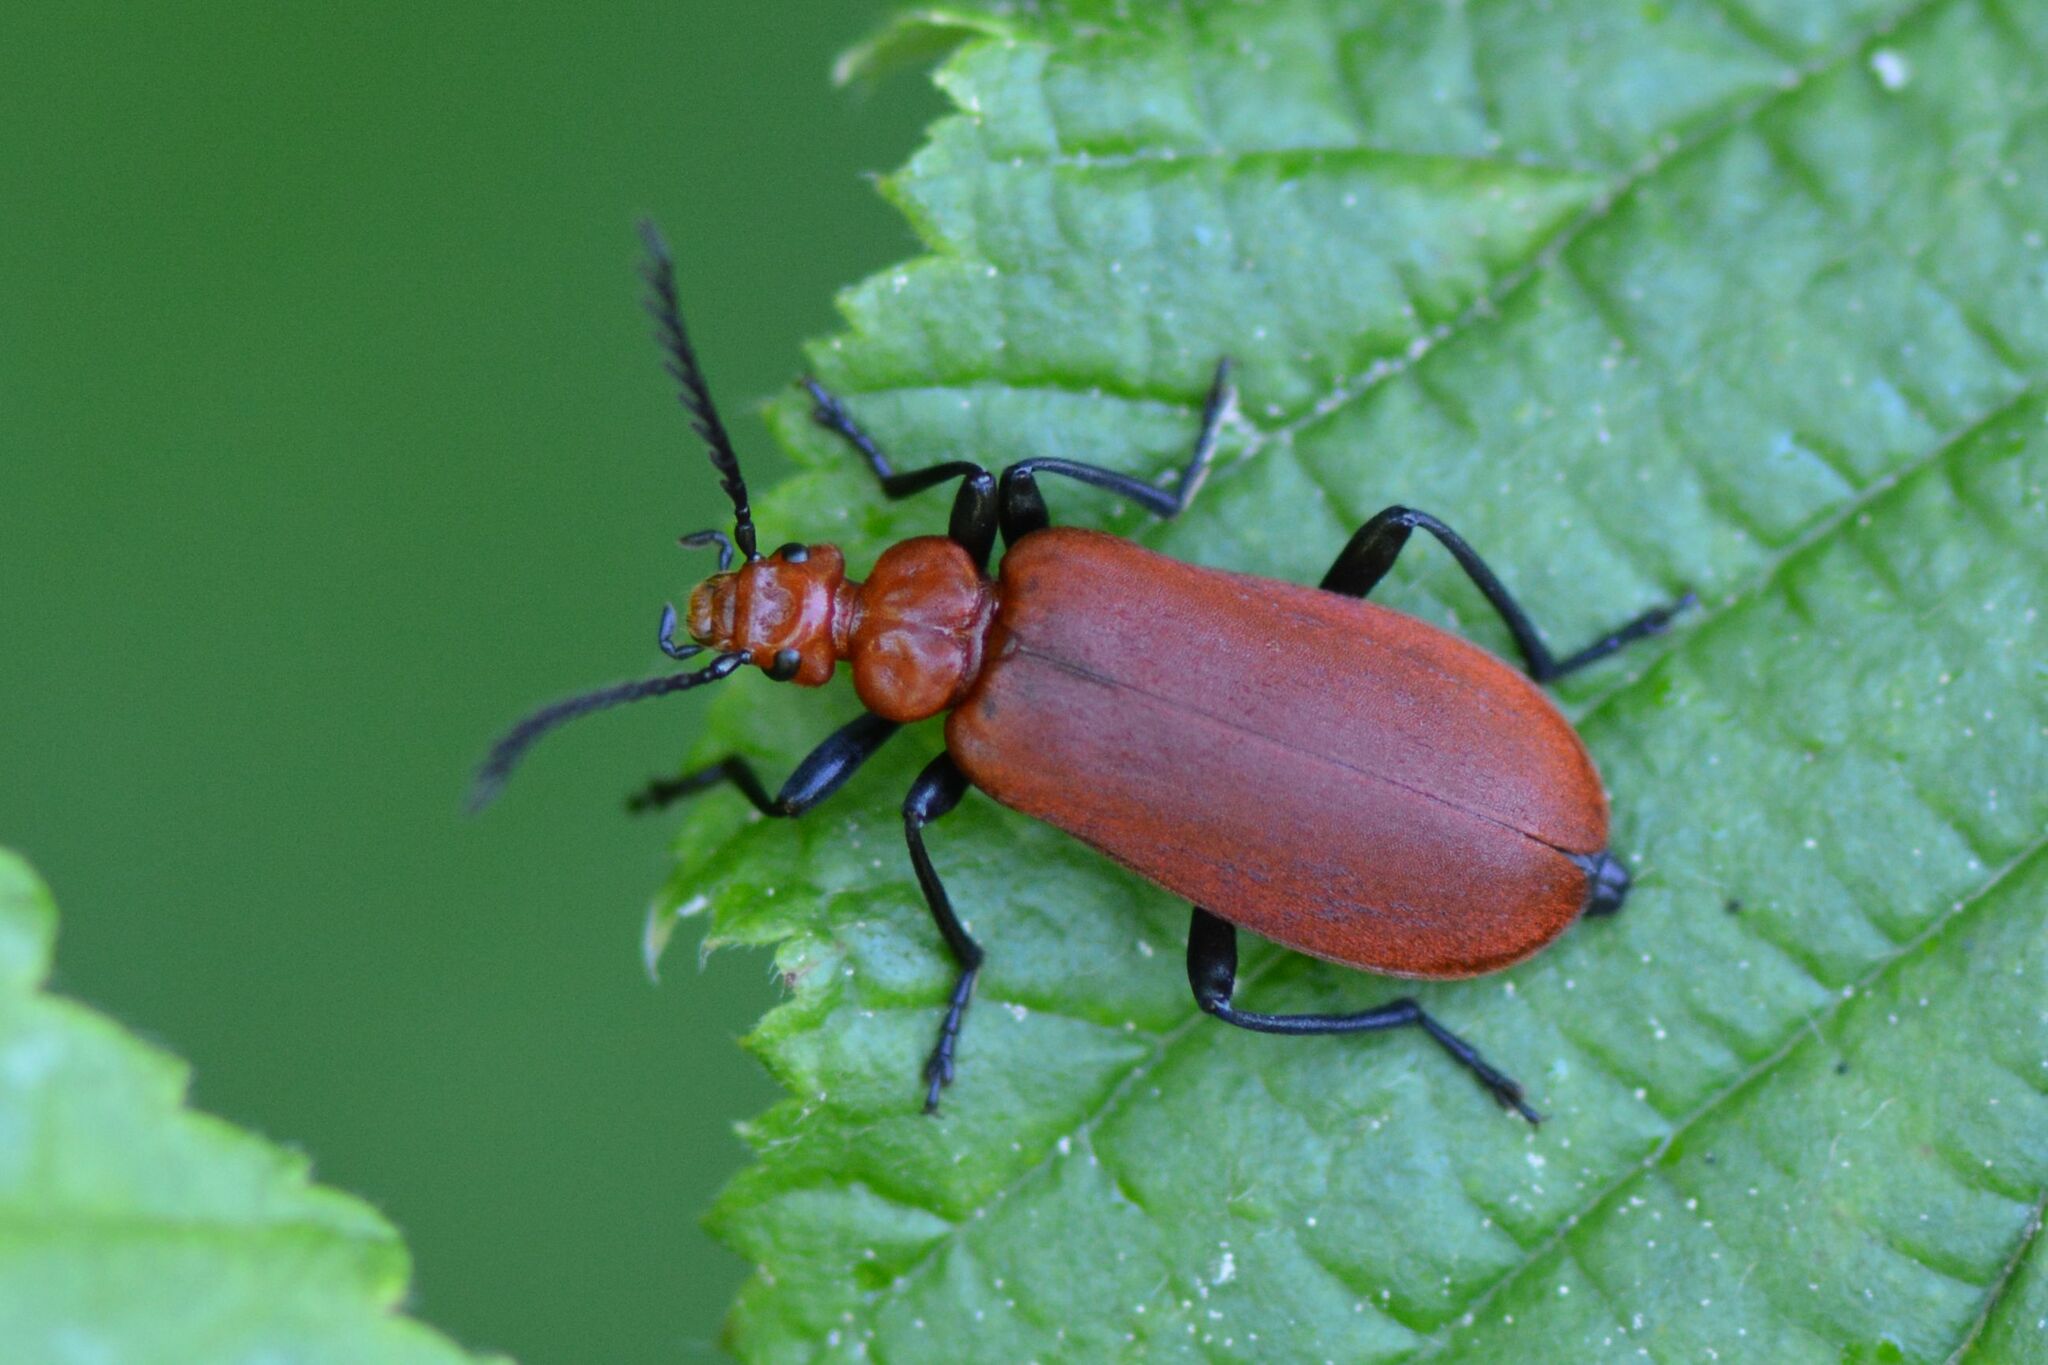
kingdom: Animalia
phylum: Arthropoda
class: Insecta
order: Coleoptera
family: Pyrochroidae
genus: Pyrochroa
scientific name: Pyrochroa serraticornis
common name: Red-headed cardinal beetle
